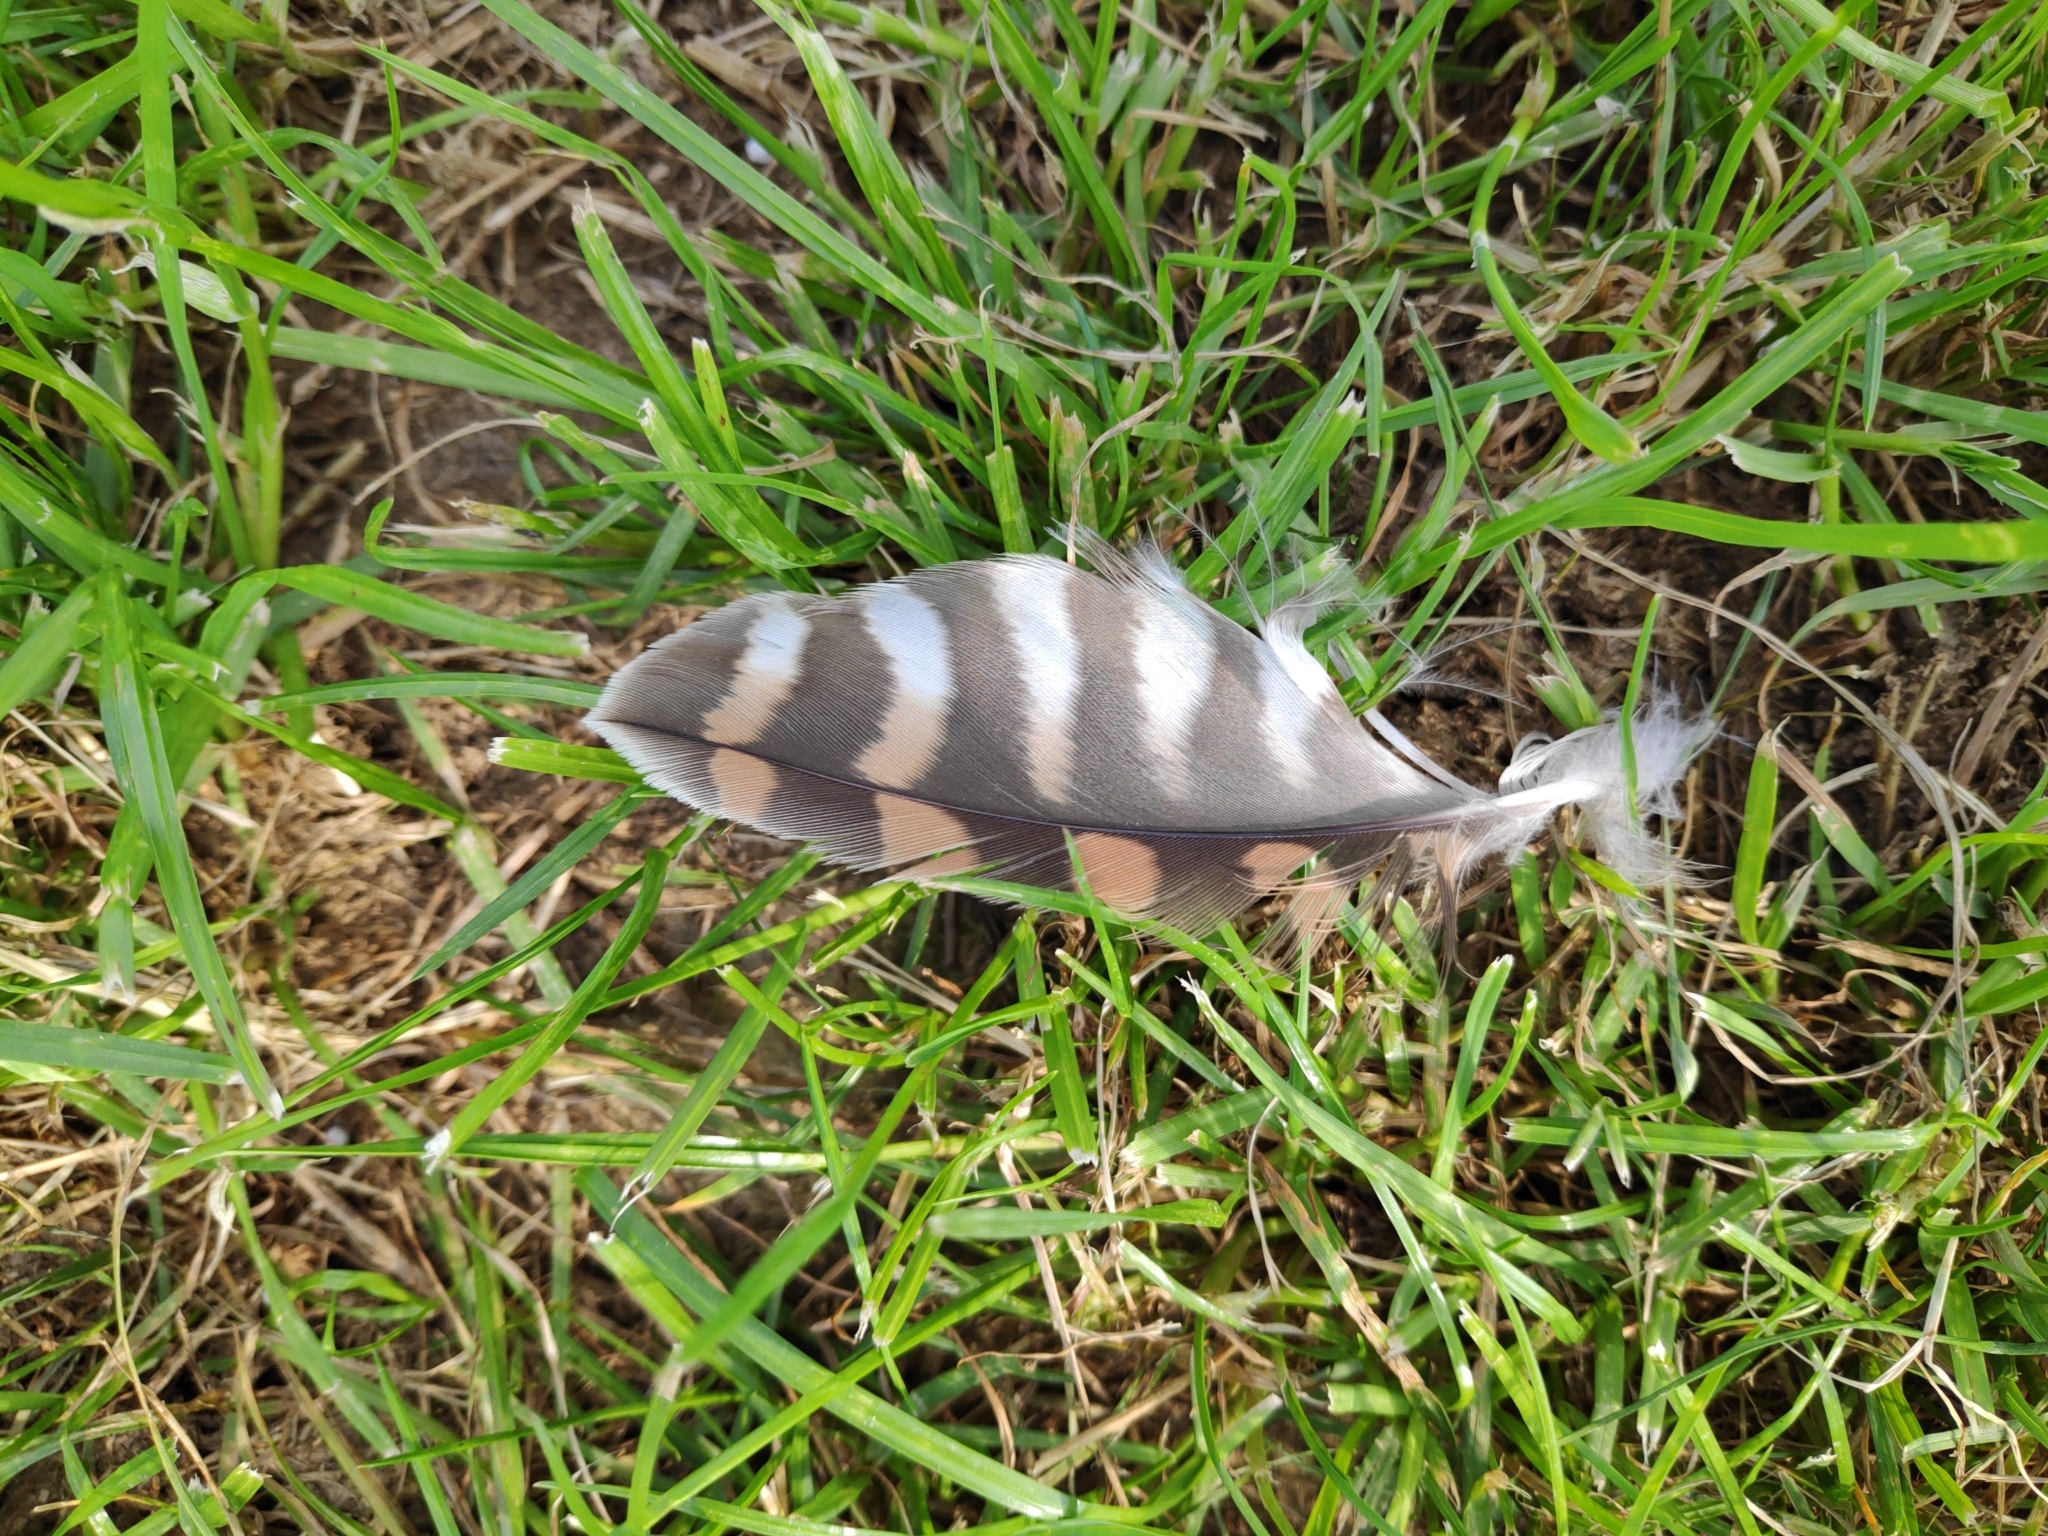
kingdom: Animalia
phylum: Chordata
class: Aves
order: Falconiformes
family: Falconidae
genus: Falco
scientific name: Falco tinnunculus
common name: Common kestrel
